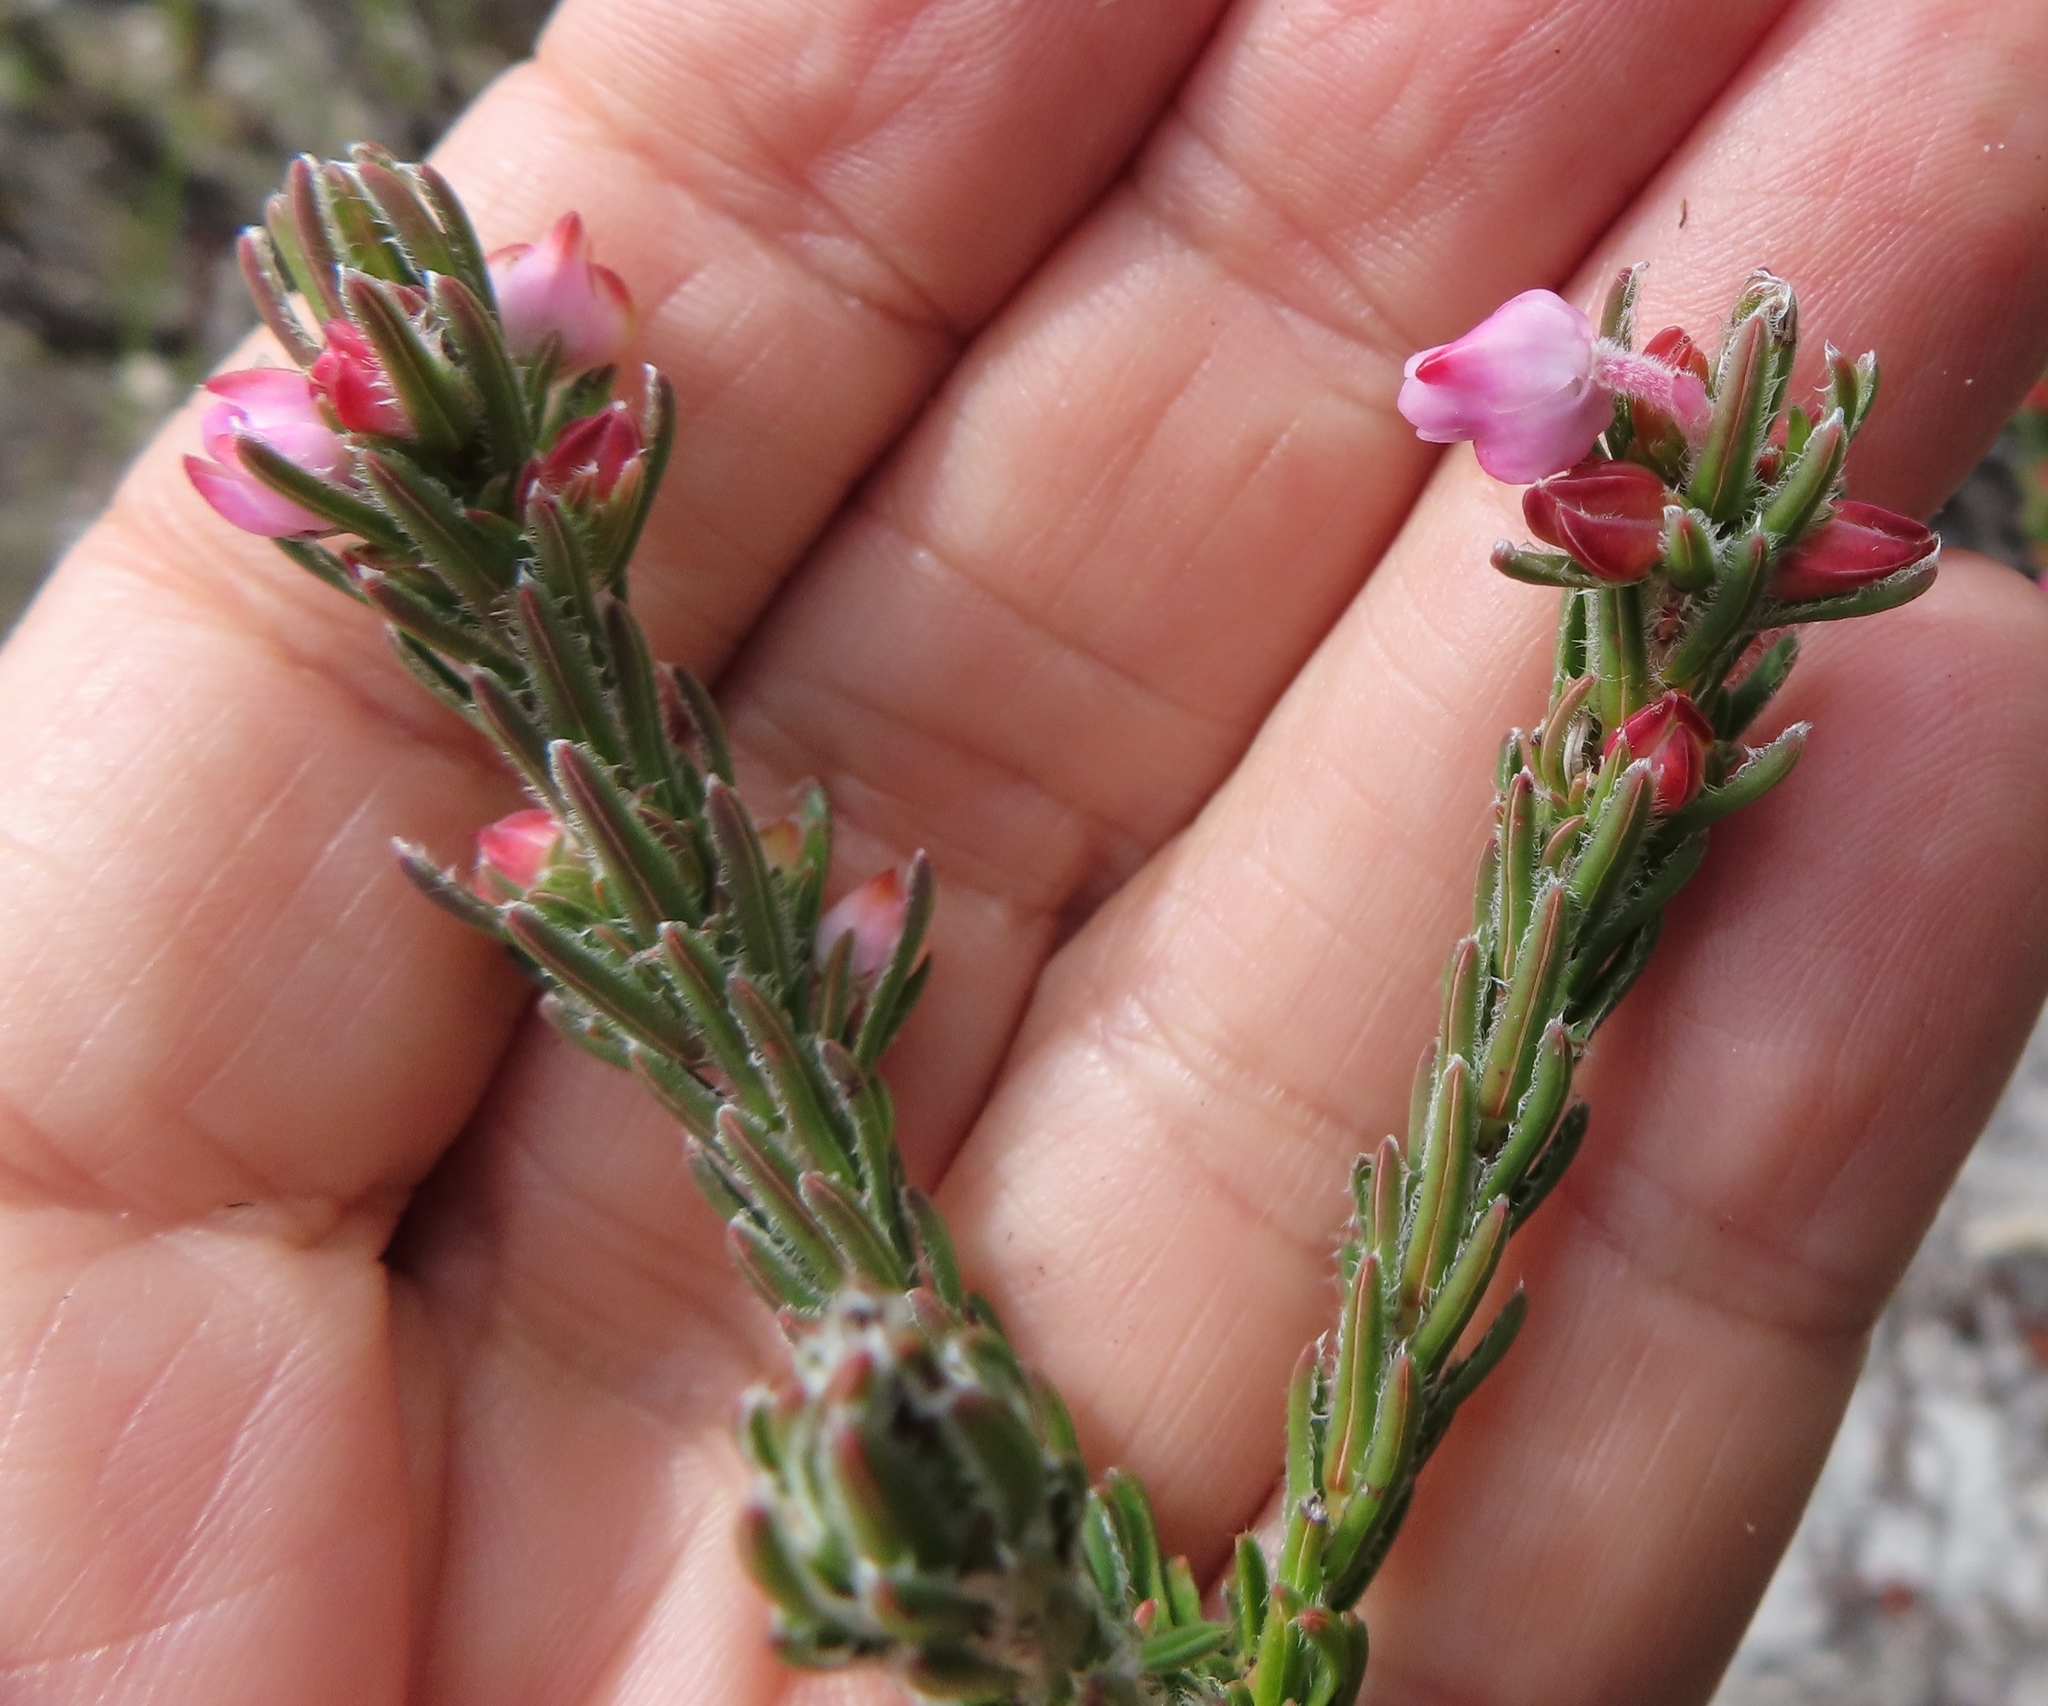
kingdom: Plantae
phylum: Tracheophyta
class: Magnoliopsida
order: Ericales
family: Ericaceae
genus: Erica
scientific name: Erica excavata
